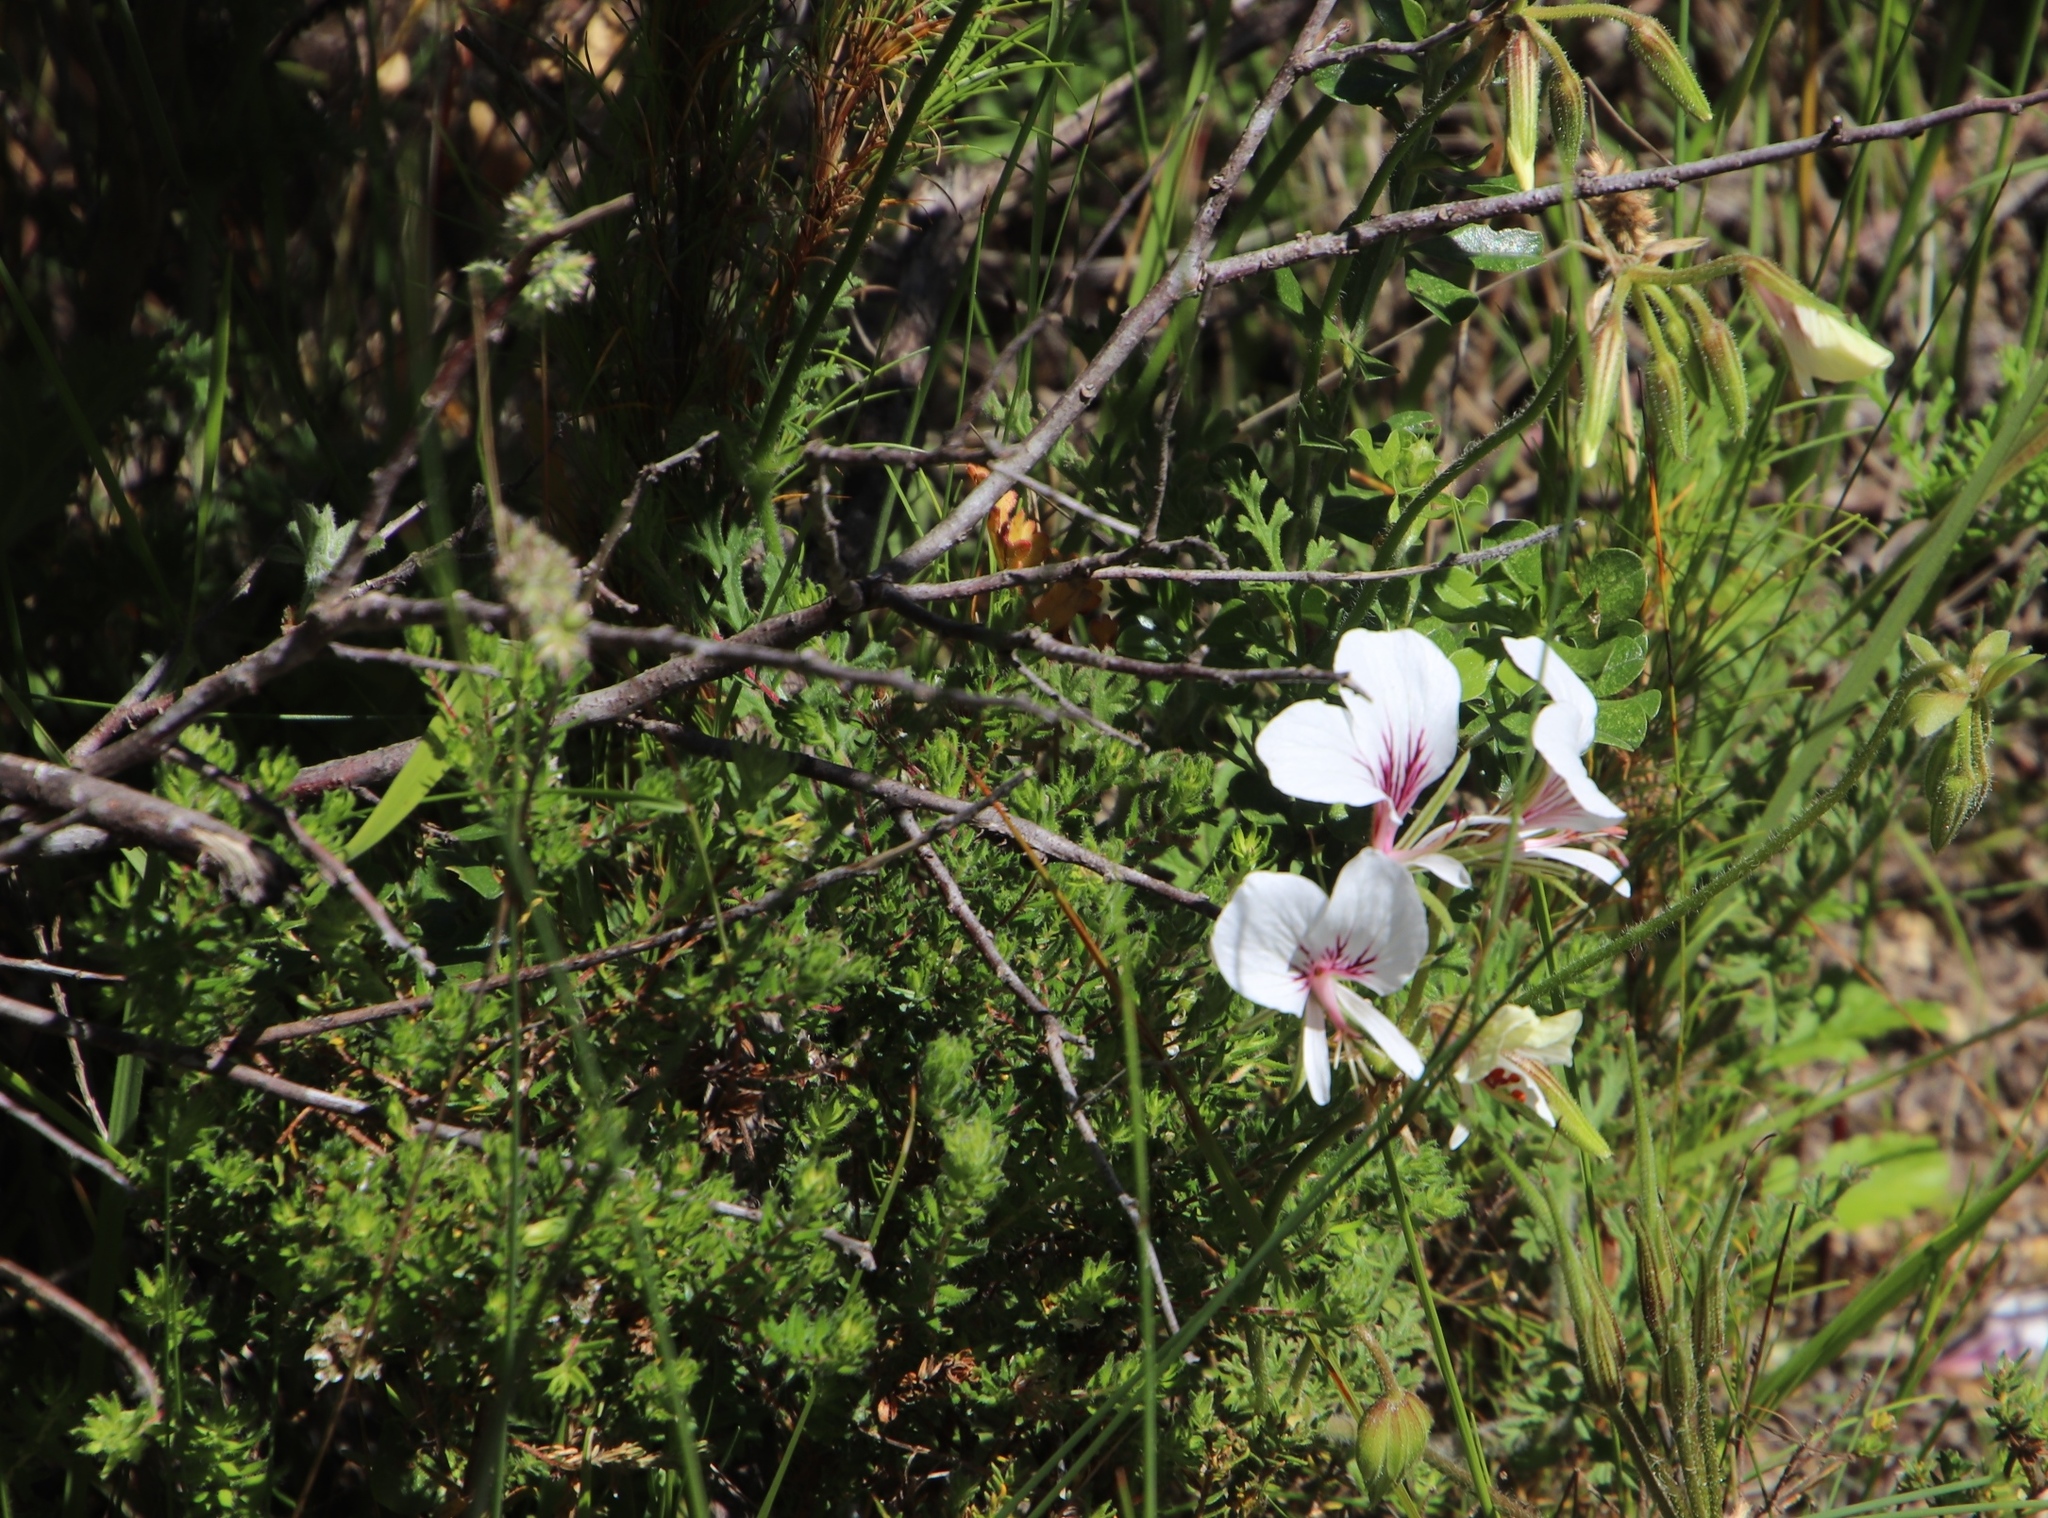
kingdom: Plantae
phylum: Tracheophyta
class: Magnoliopsida
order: Geraniales
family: Geraniaceae
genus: Pelargonium
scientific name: Pelargonium suburbanum
